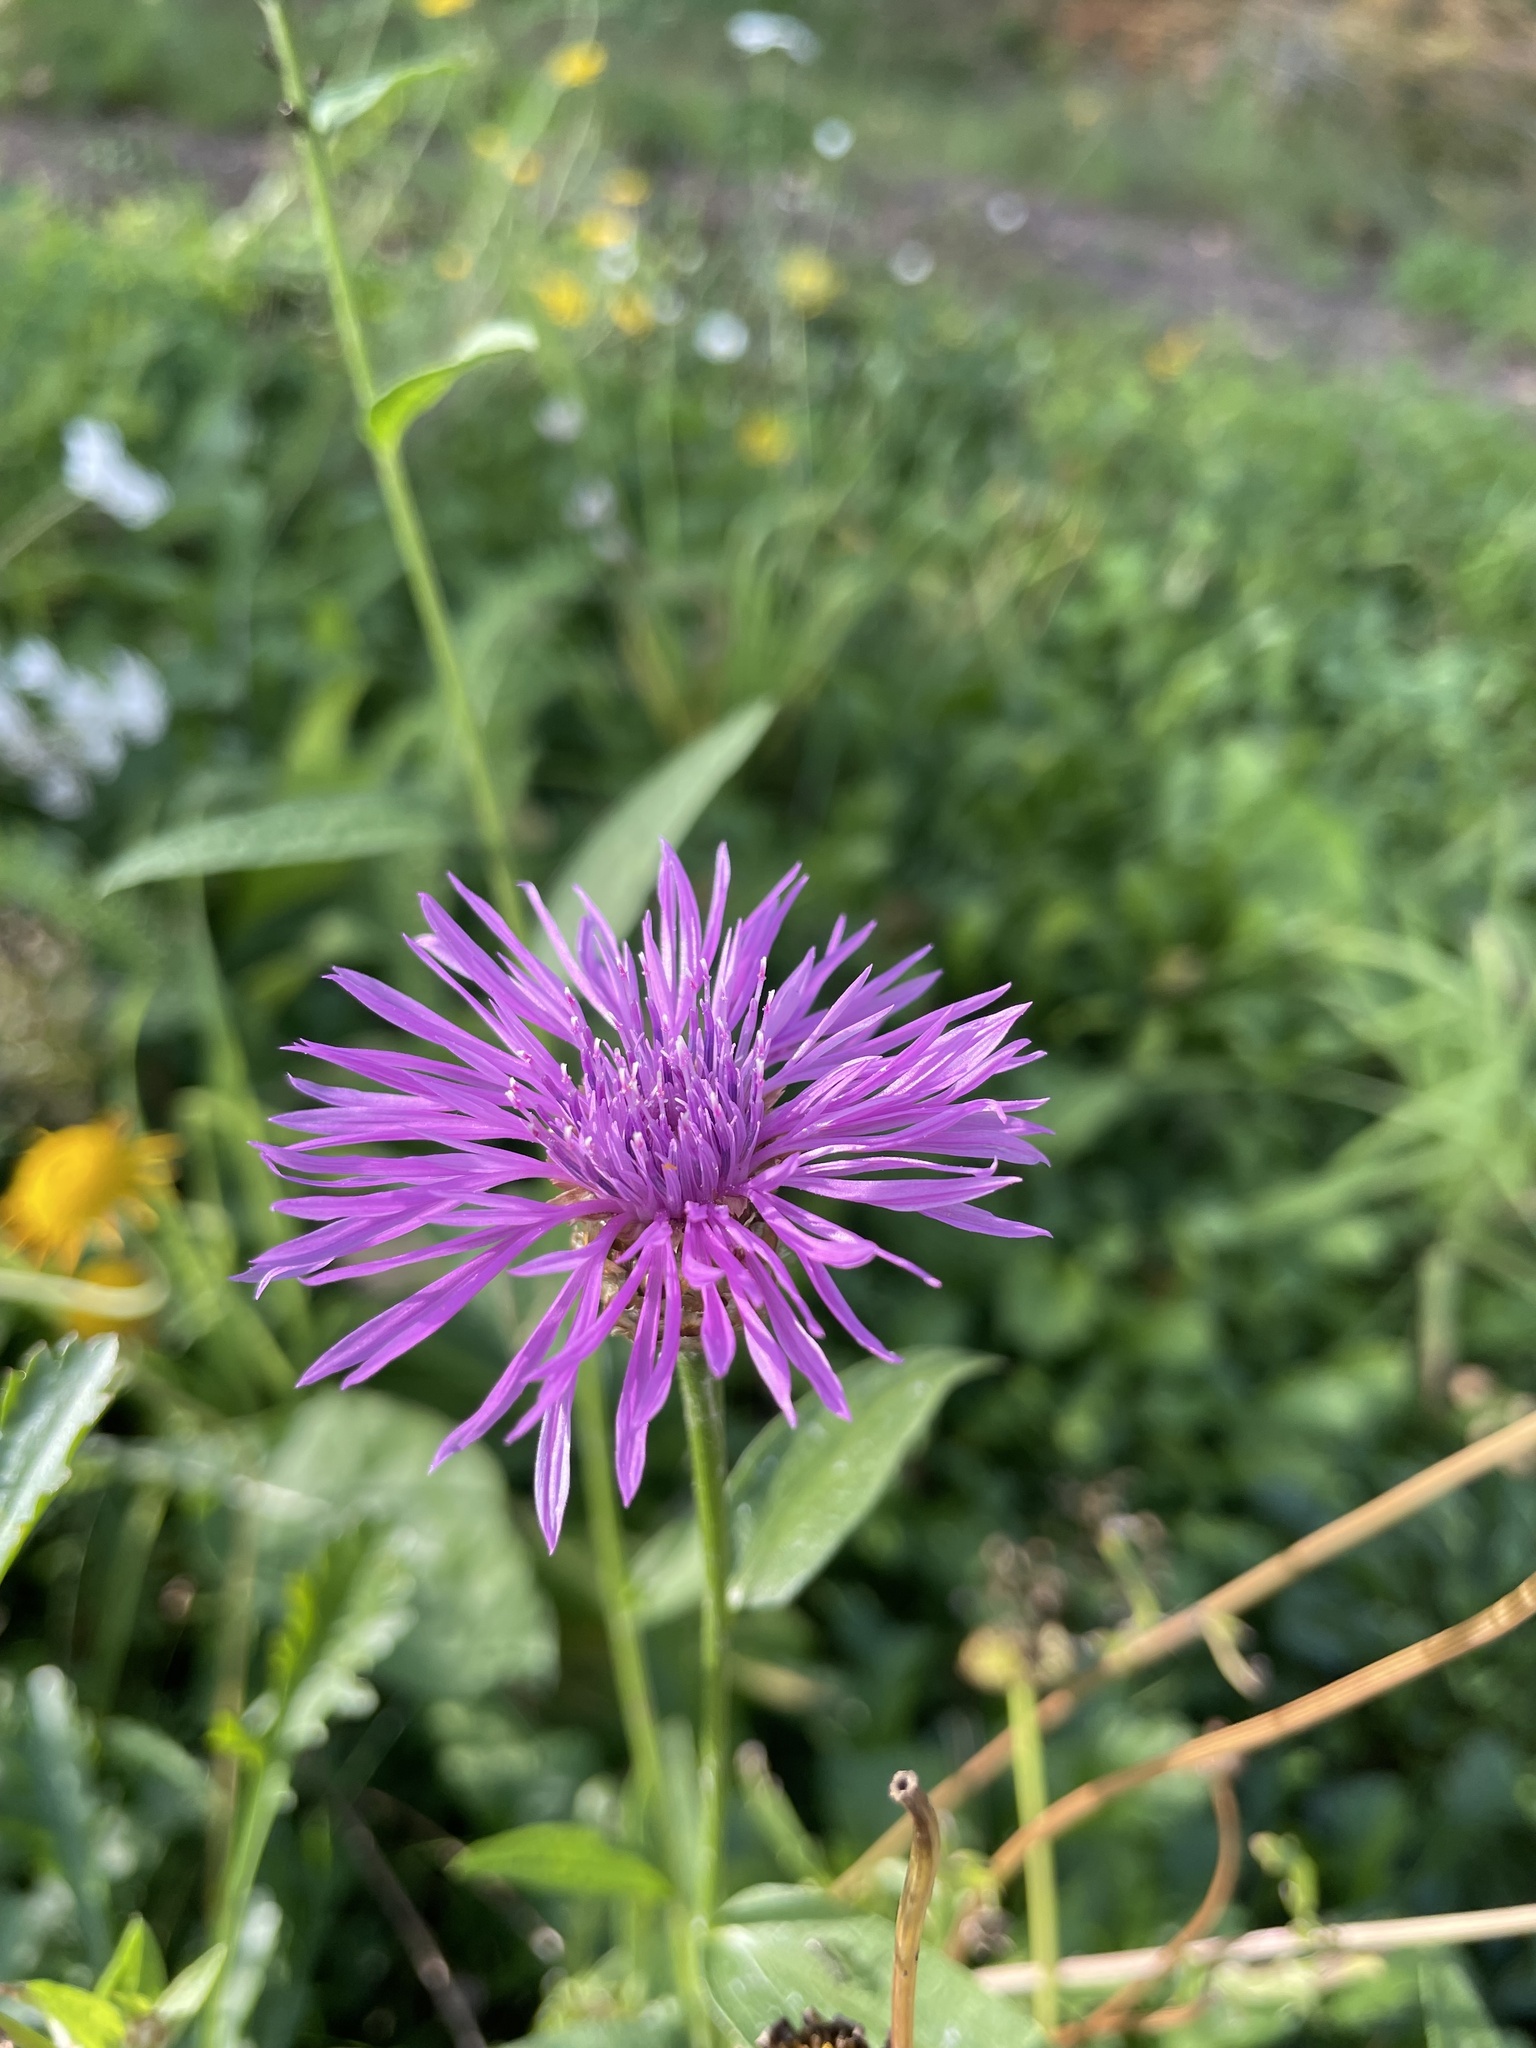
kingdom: Plantae
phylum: Tracheophyta
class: Magnoliopsida
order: Asterales
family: Asteraceae
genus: Centaurea
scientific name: Centaurea jacea
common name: Brown knapweed
